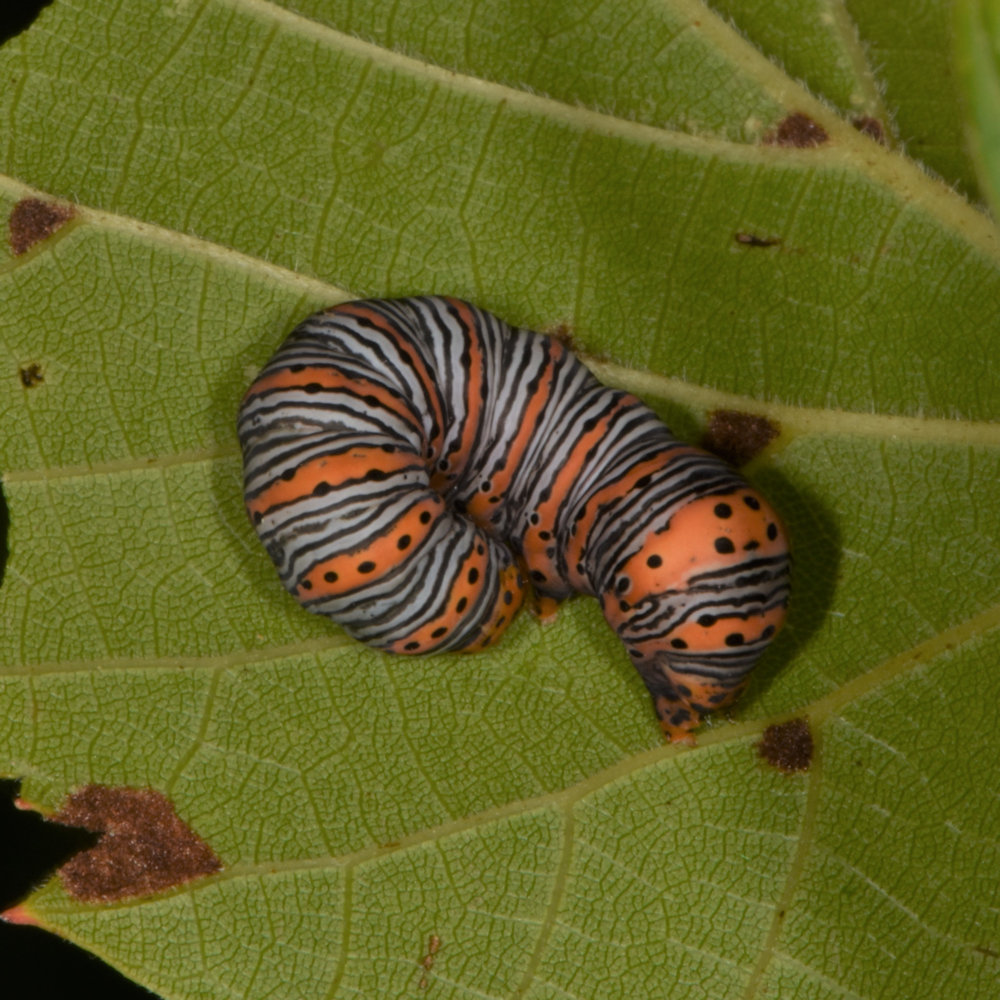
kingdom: Animalia
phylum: Arthropoda
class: Insecta
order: Lepidoptera
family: Noctuidae
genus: Eudryas
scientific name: Eudryas grata
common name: Beautiful wood-nymph
